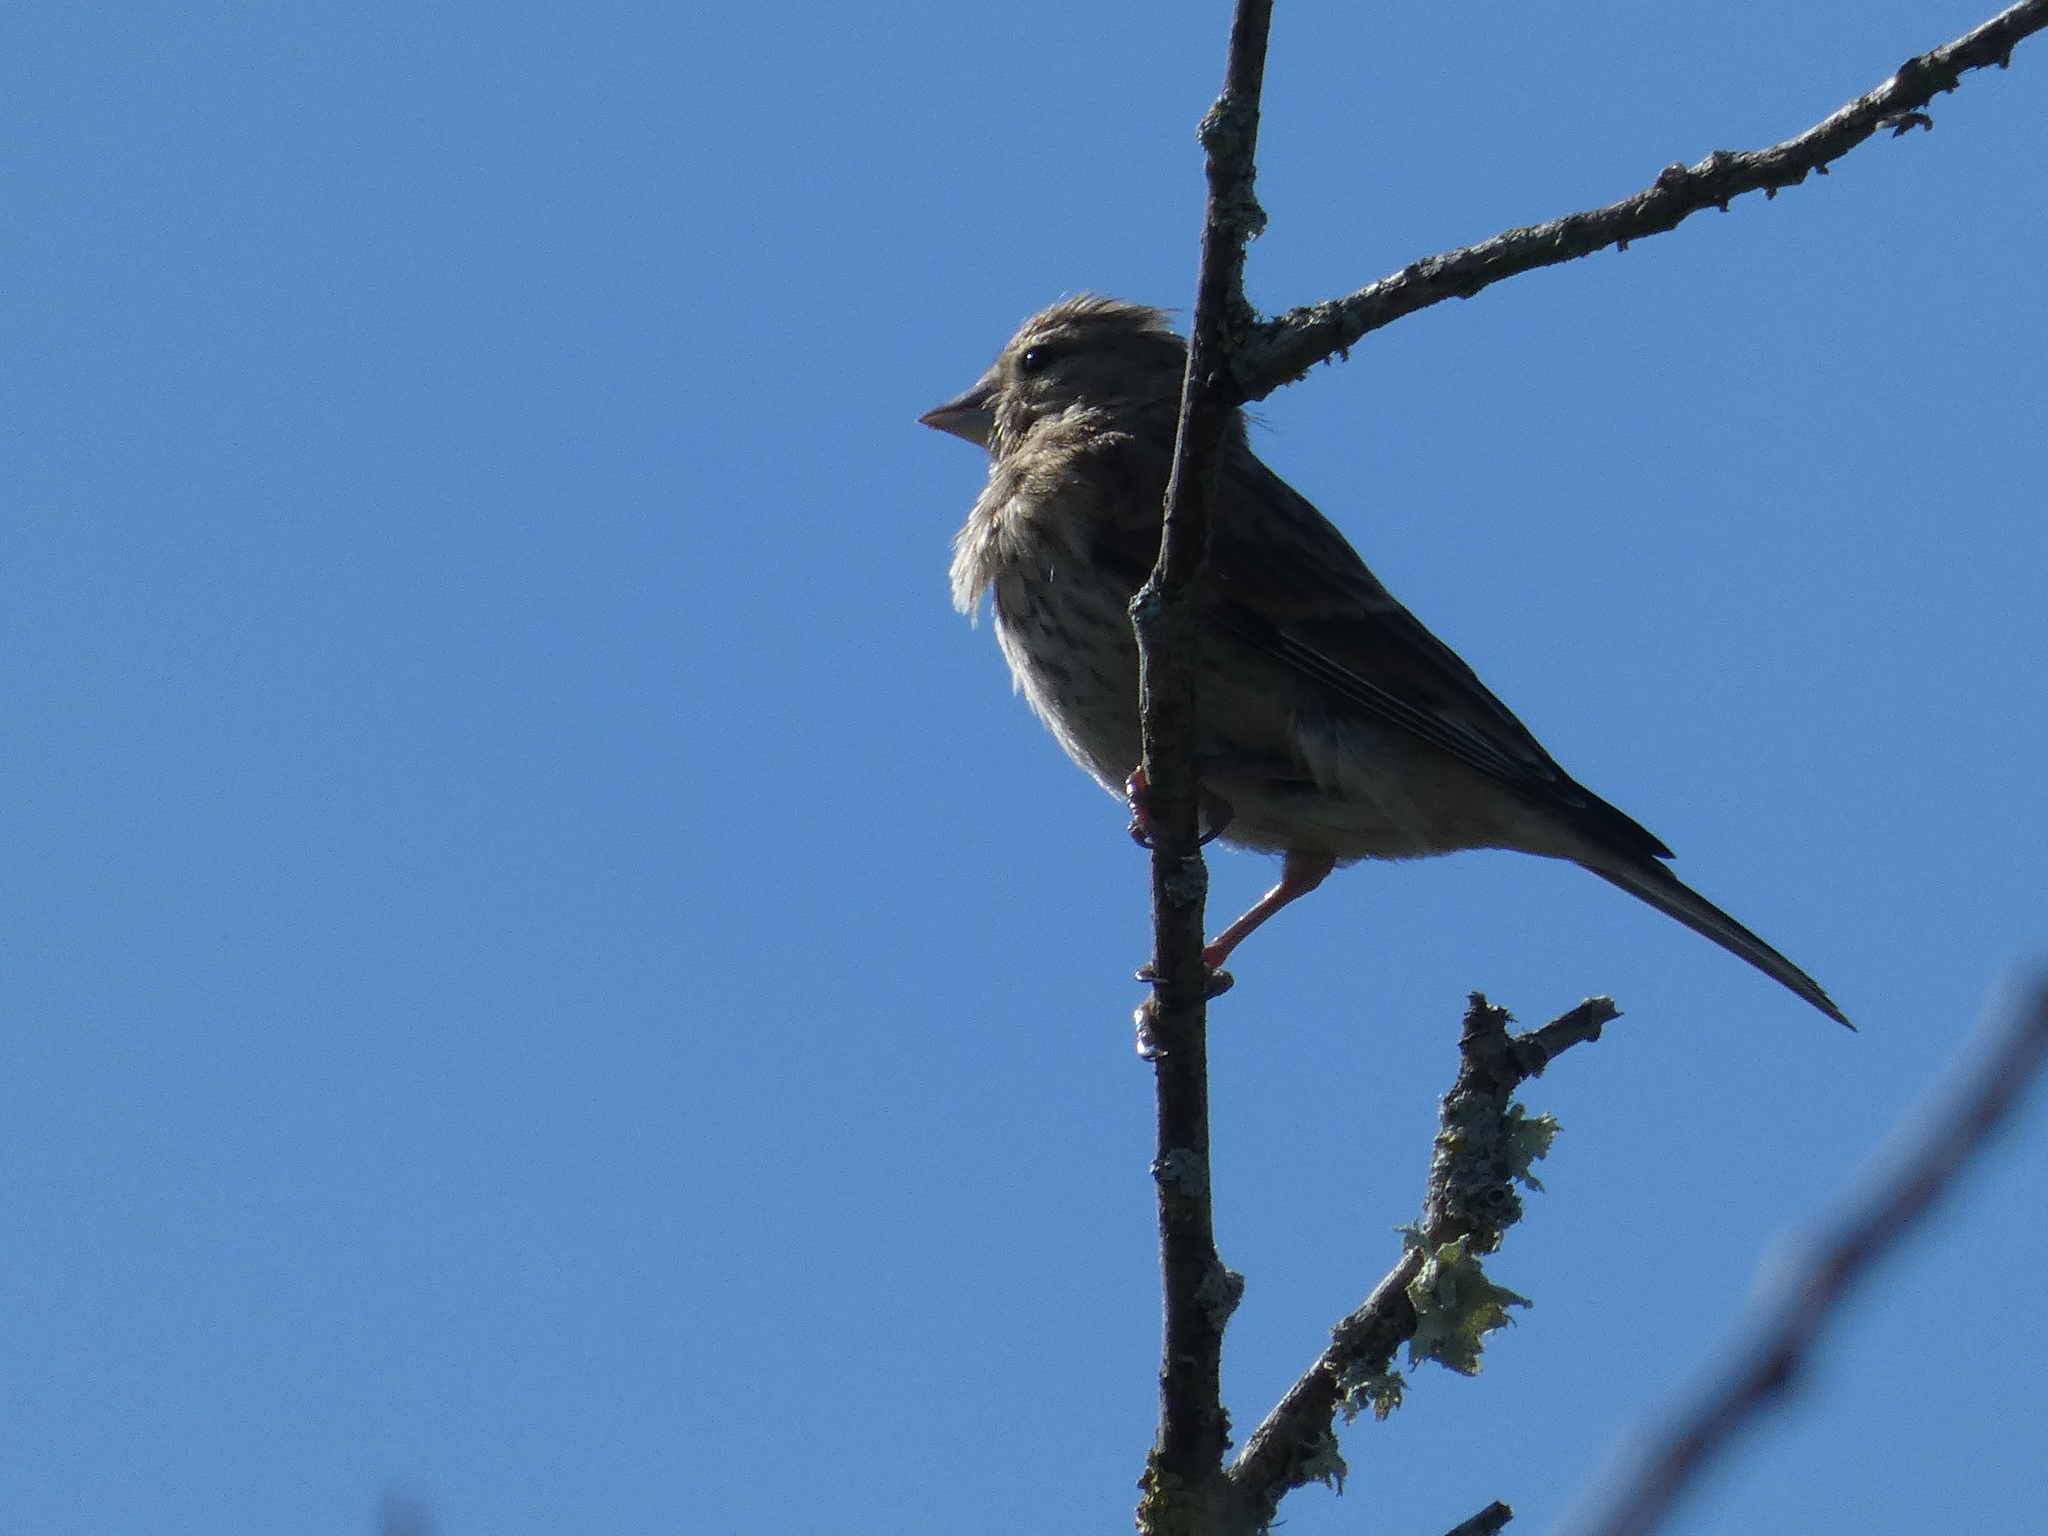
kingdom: Animalia
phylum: Chordata
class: Aves
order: Passeriformes
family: Fringillidae
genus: Linaria
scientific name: Linaria cannabina
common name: Common linnet
